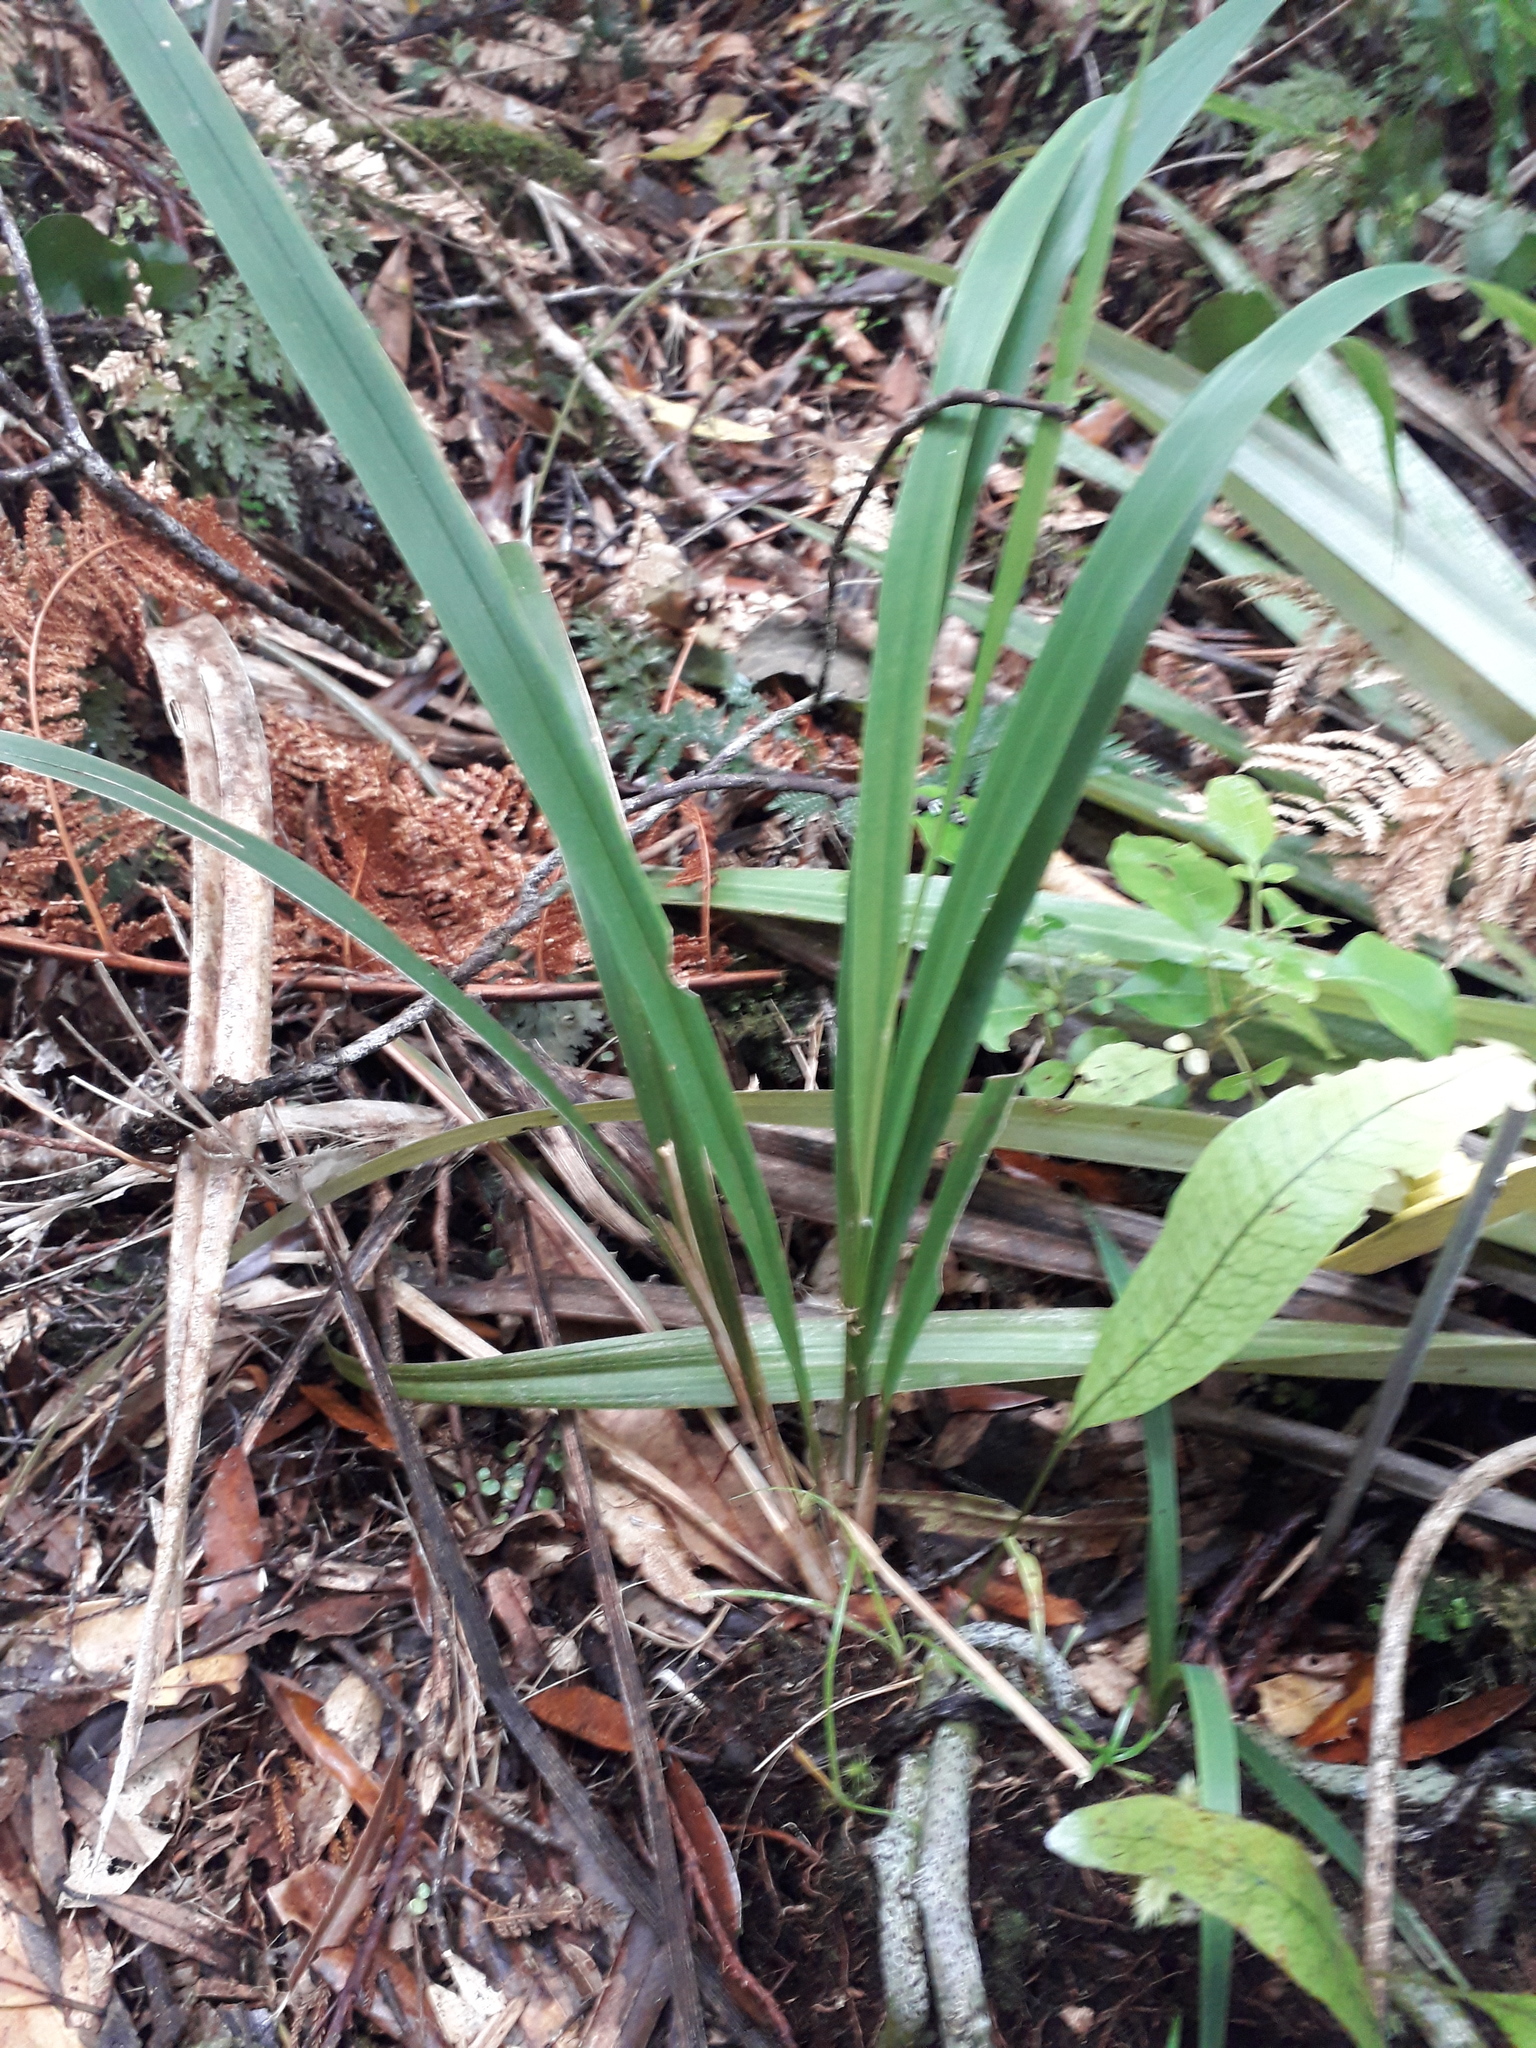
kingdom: Plantae
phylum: Tracheophyta
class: Liliopsida
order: Poales
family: Poaceae
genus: Ehrharta
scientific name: Ehrharta diplax
